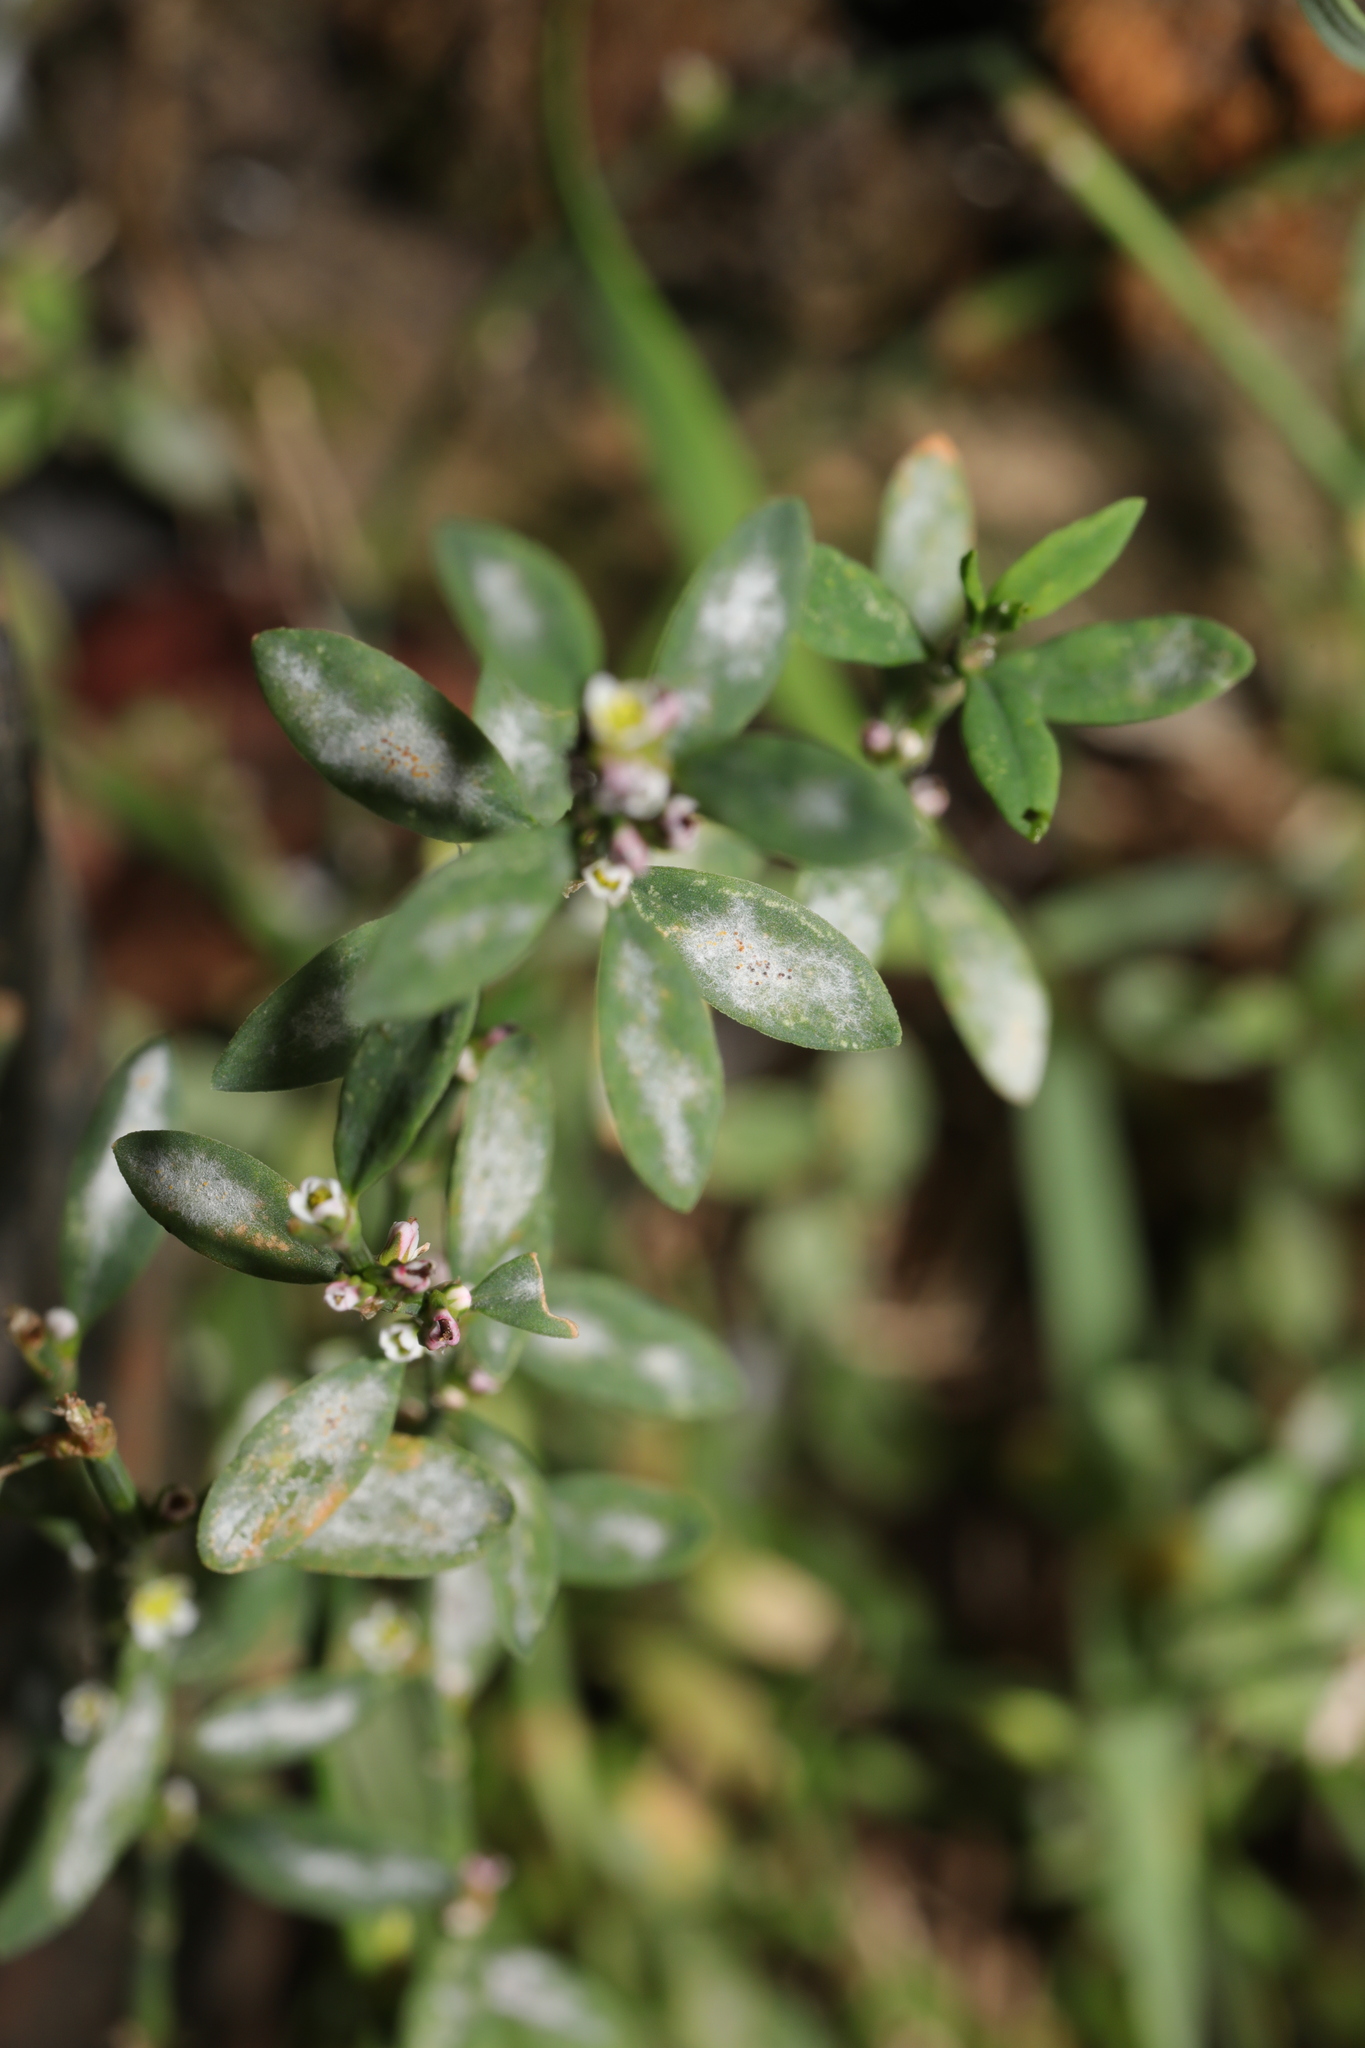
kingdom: Plantae
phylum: Tracheophyta
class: Magnoliopsida
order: Caryophyllales
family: Polygonaceae
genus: Polygonum
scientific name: Polygonum aviculare
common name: Prostrate knotweed
